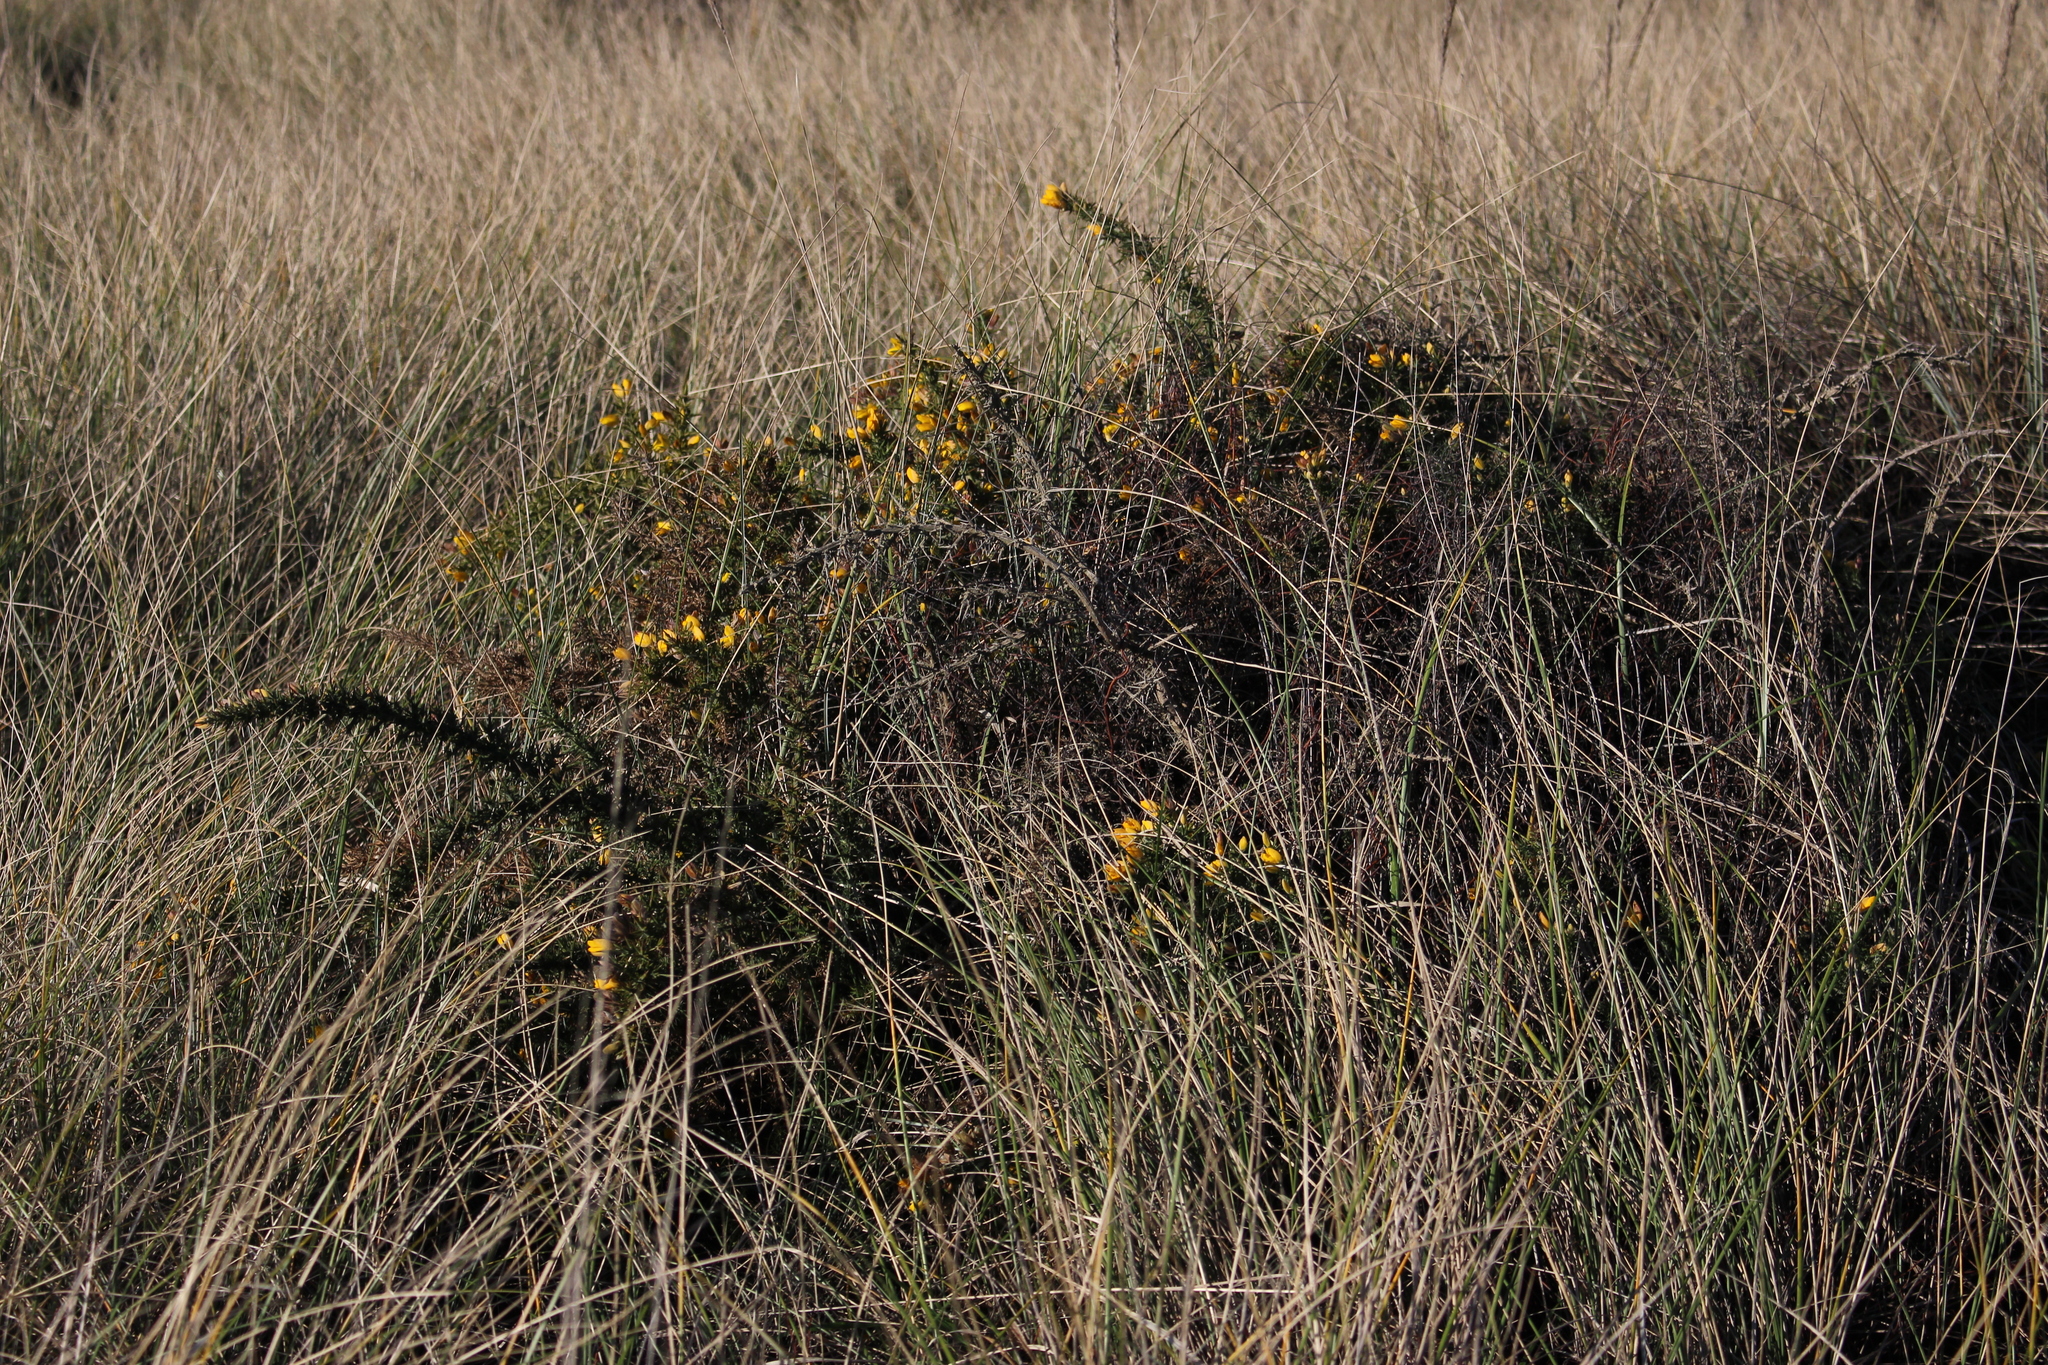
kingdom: Plantae
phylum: Tracheophyta
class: Magnoliopsida
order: Fabales
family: Fabaceae
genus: Ulex
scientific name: Ulex europaeus
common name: Common gorse
